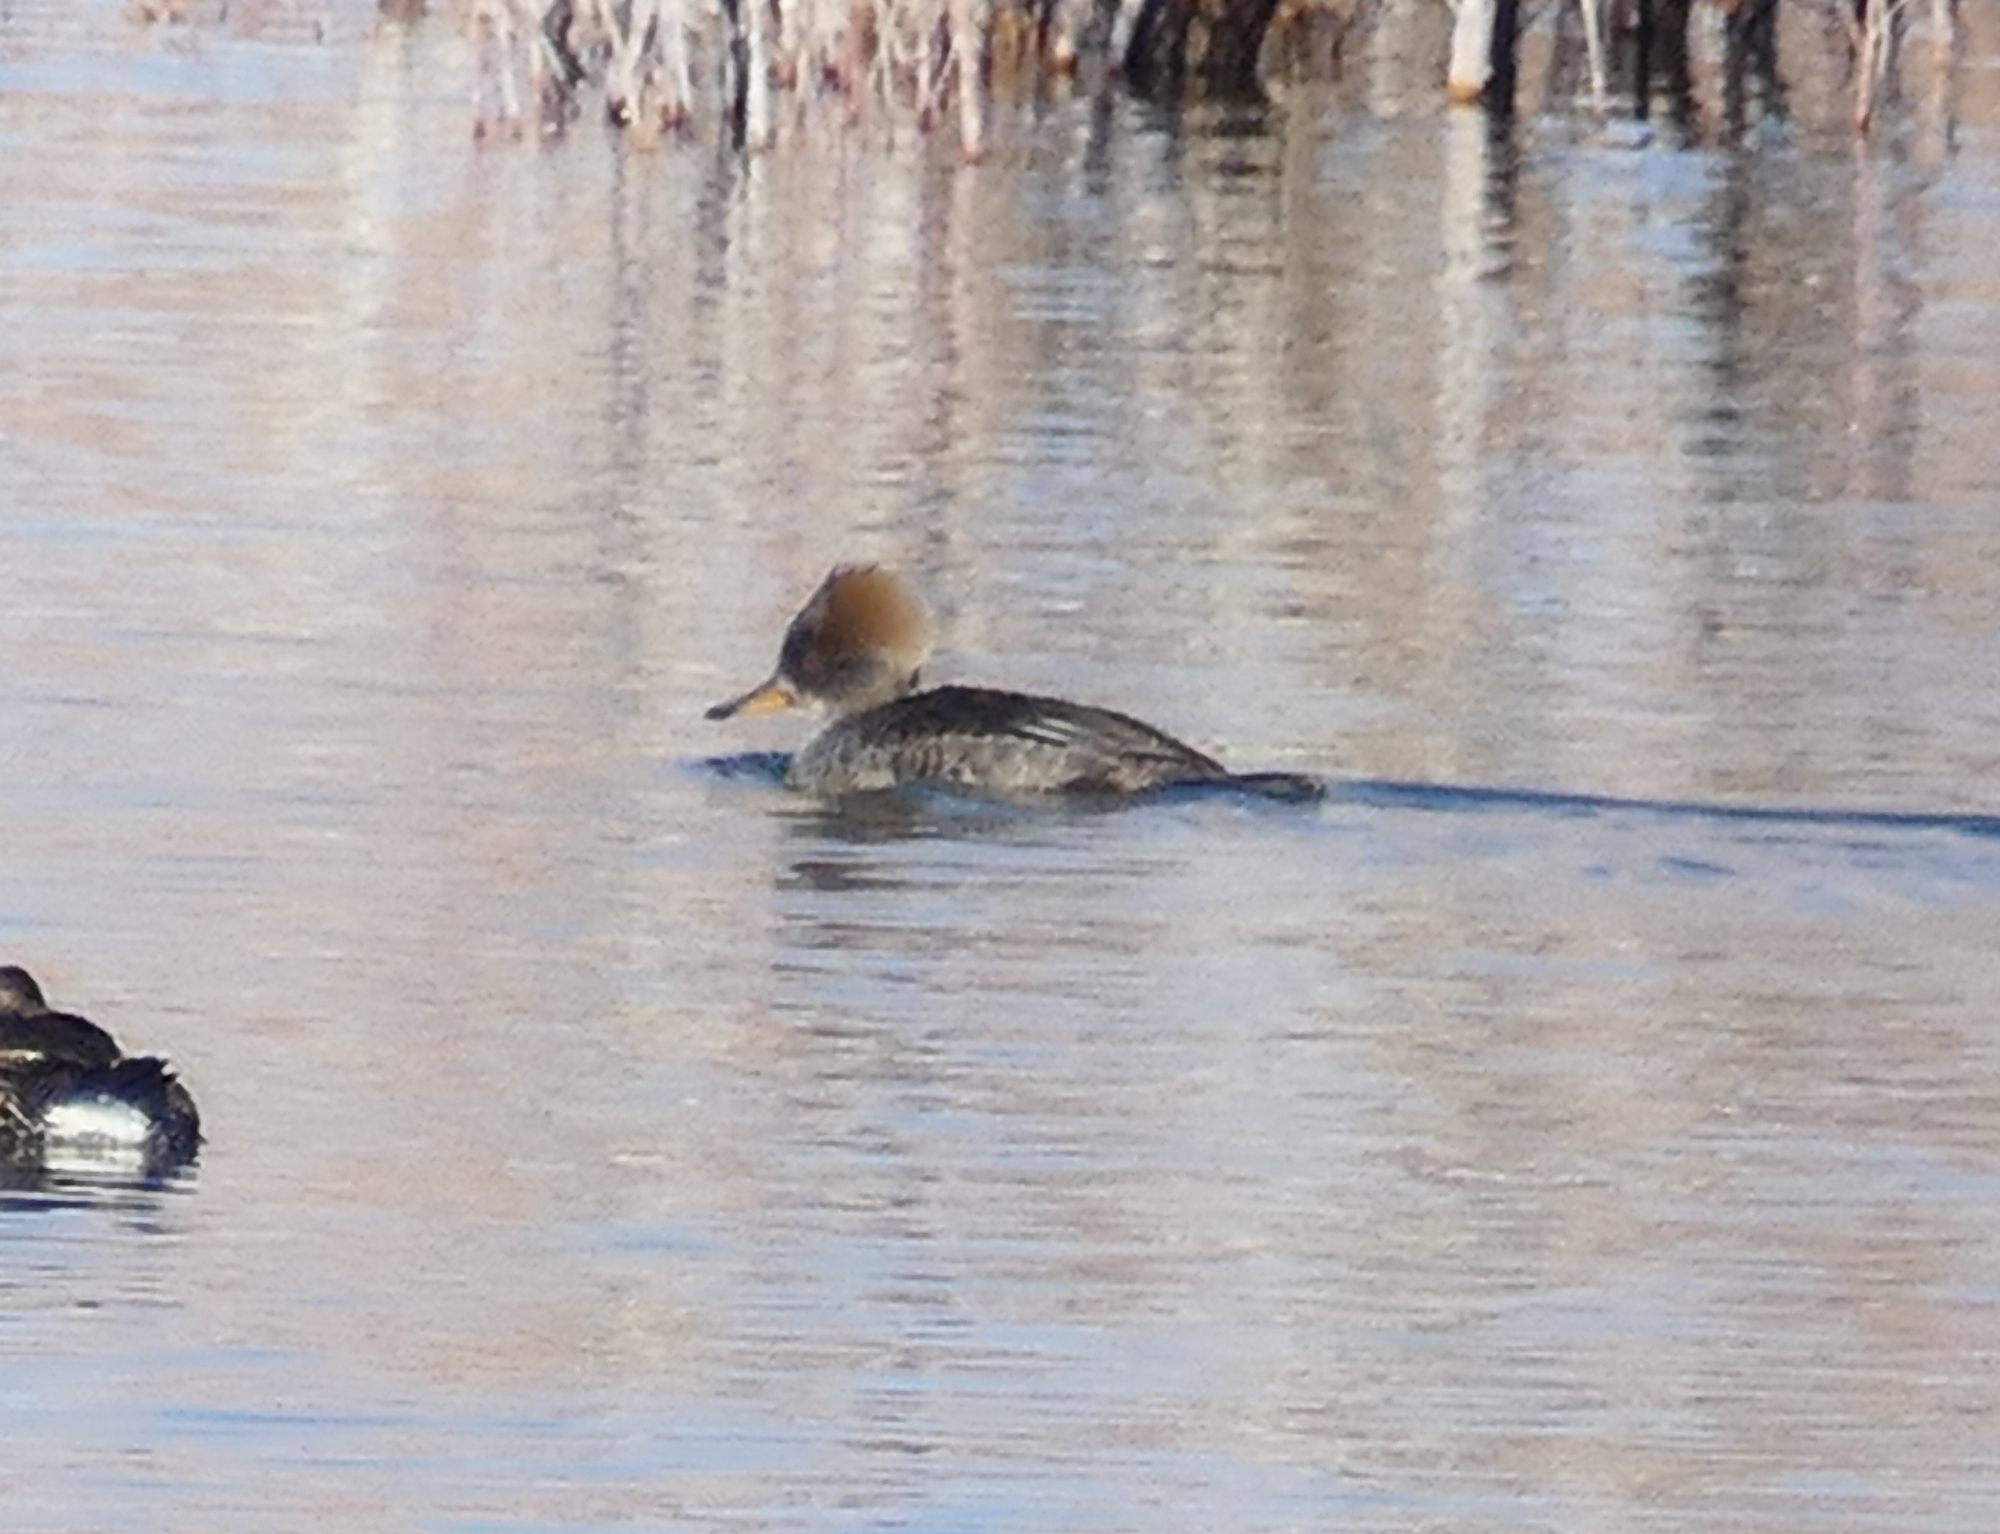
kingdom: Animalia
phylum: Chordata
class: Aves
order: Anseriformes
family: Anatidae
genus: Lophodytes
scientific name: Lophodytes cucullatus
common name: Hooded merganser
